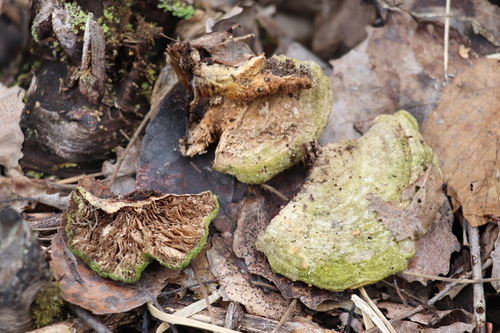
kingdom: Fungi
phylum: Basidiomycota
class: Agaricomycetes
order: Polyporales
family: Polyporaceae
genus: Lenzites
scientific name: Lenzites betulinus
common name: Birch mazegill
